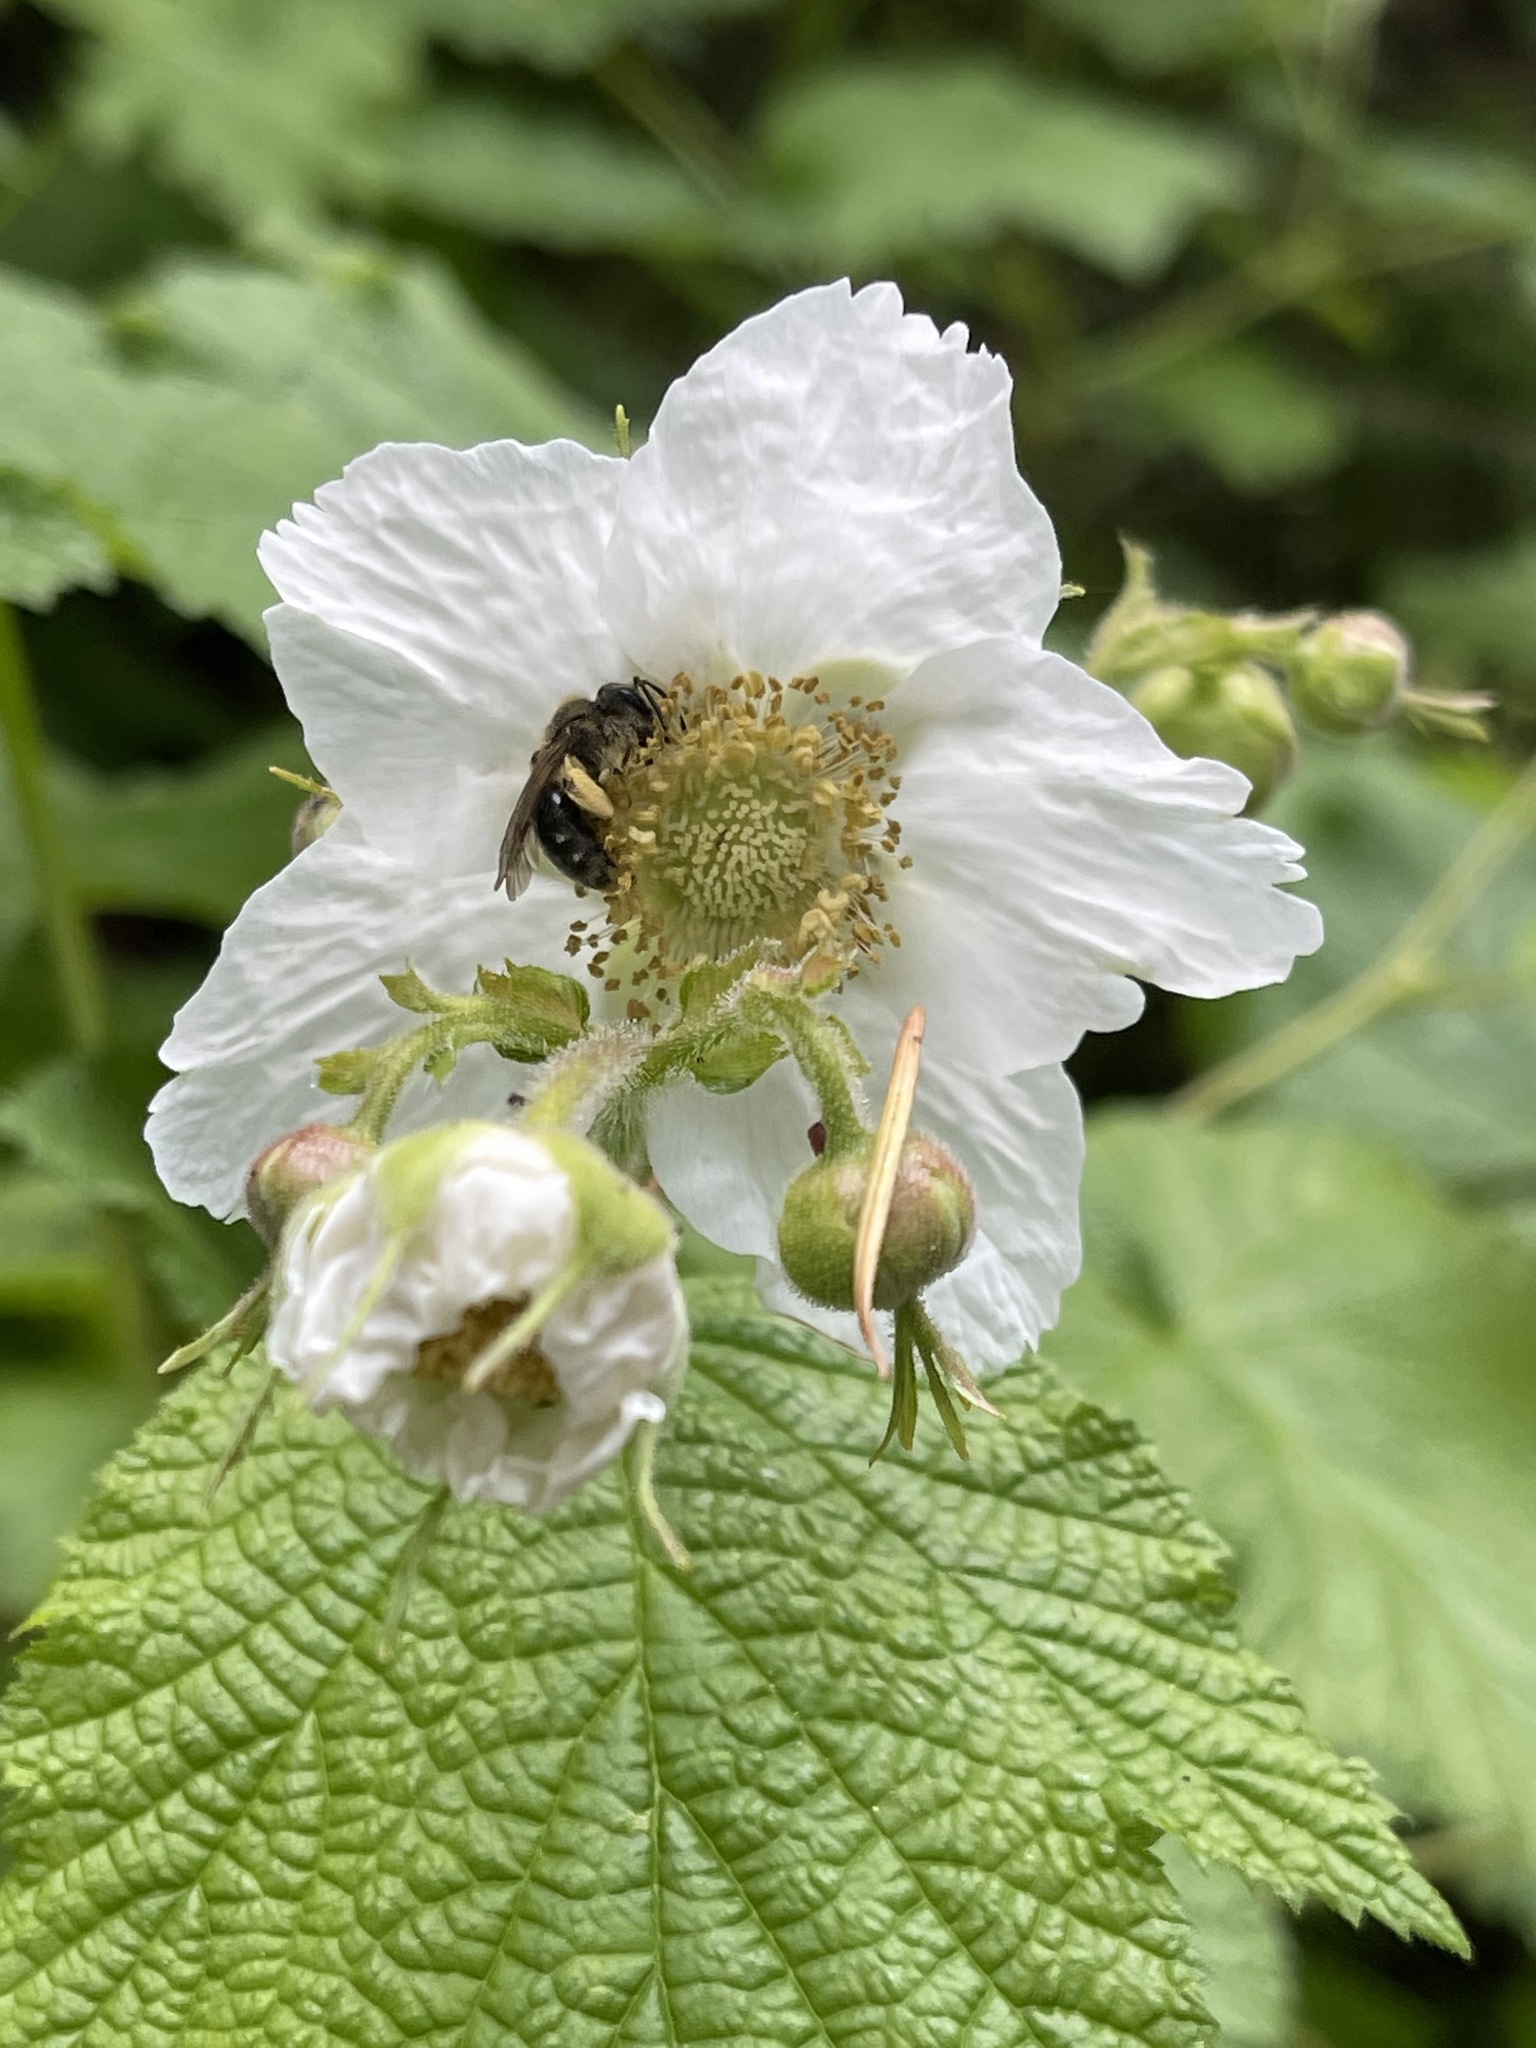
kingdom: Plantae
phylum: Tracheophyta
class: Magnoliopsida
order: Rosales
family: Rosaceae
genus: Rubus
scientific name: Rubus parviflorus
